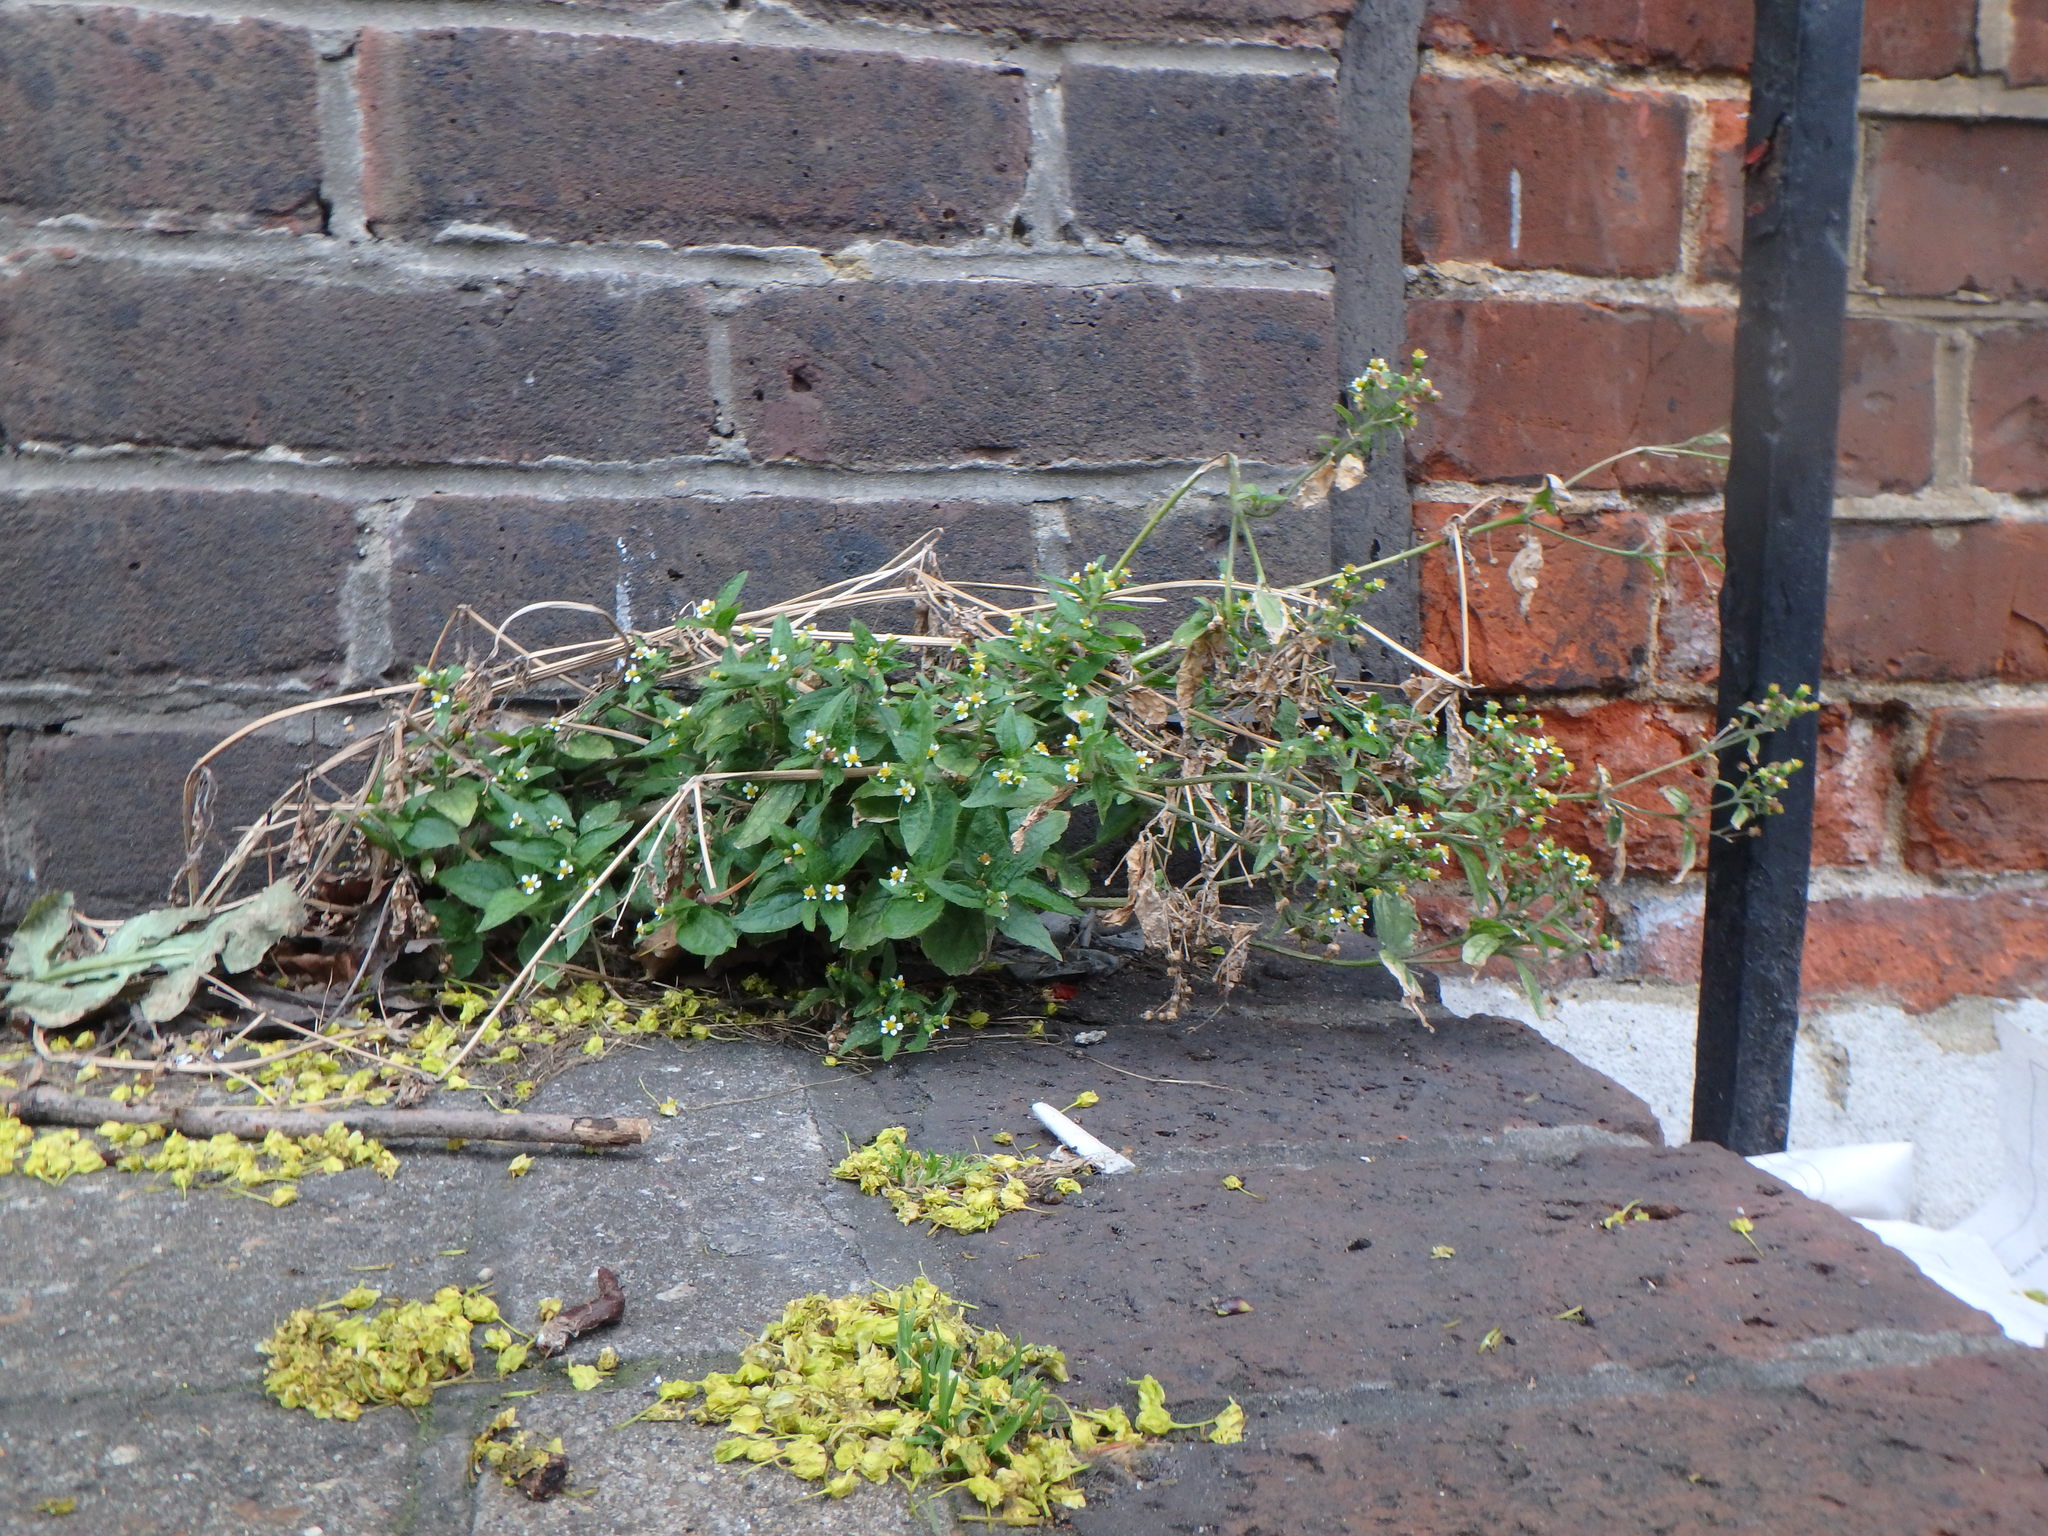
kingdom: Plantae
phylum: Tracheophyta
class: Magnoliopsida
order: Asterales
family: Asteraceae
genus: Galinsoga
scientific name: Galinsoga quadriradiata
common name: Shaggy soldier
